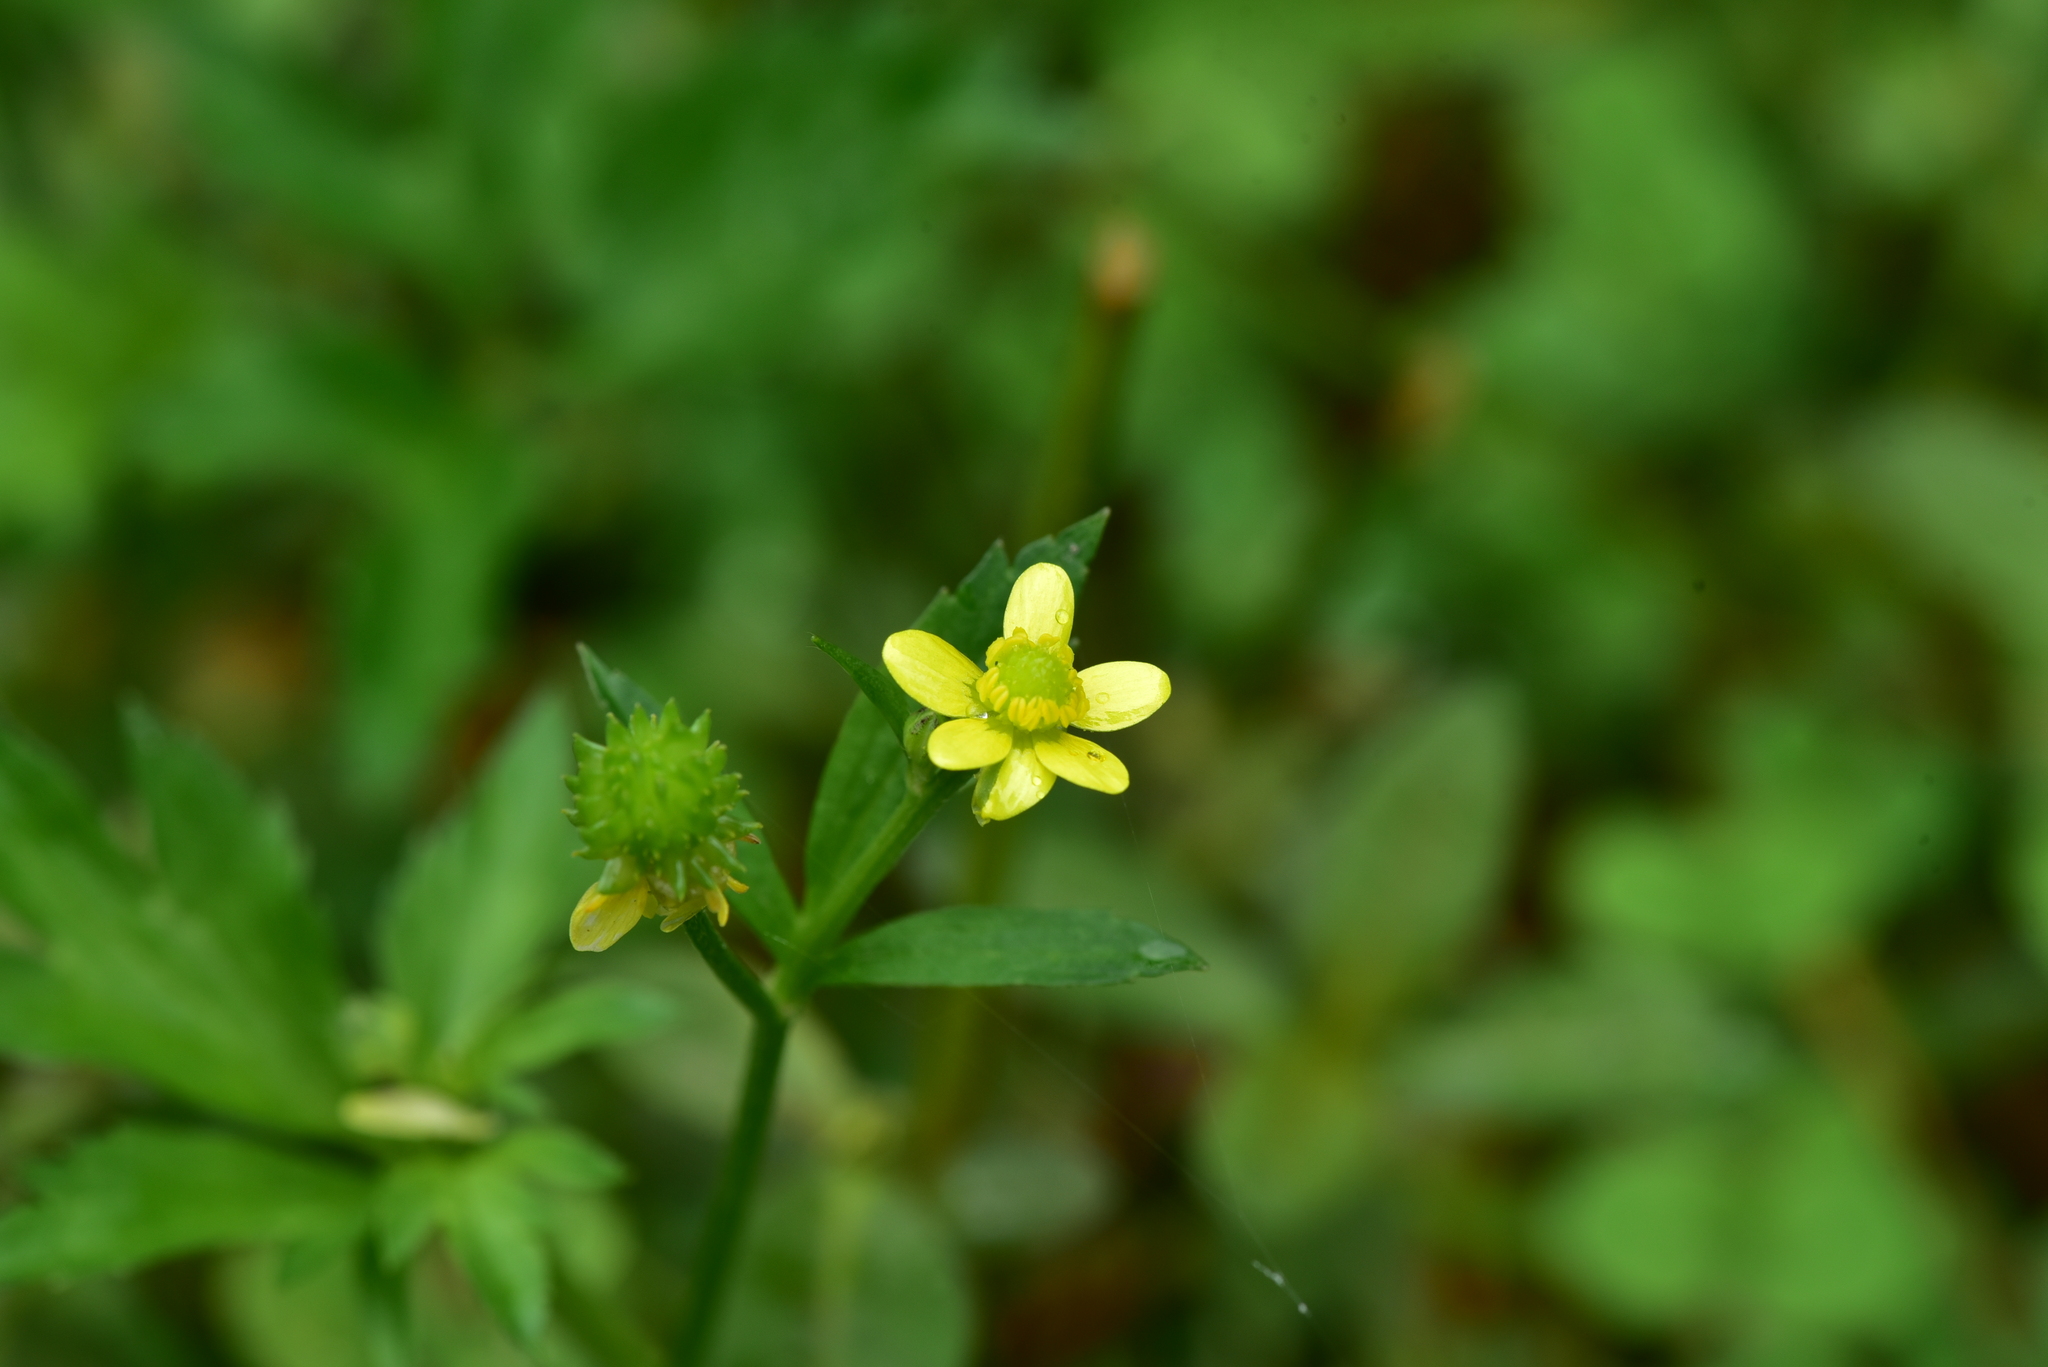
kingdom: Plantae
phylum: Tracheophyta
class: Magnoliopsida
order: Ranunculales
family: Ranunculaceae
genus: Ranunculus
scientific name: Ranunculus cantoniensis
